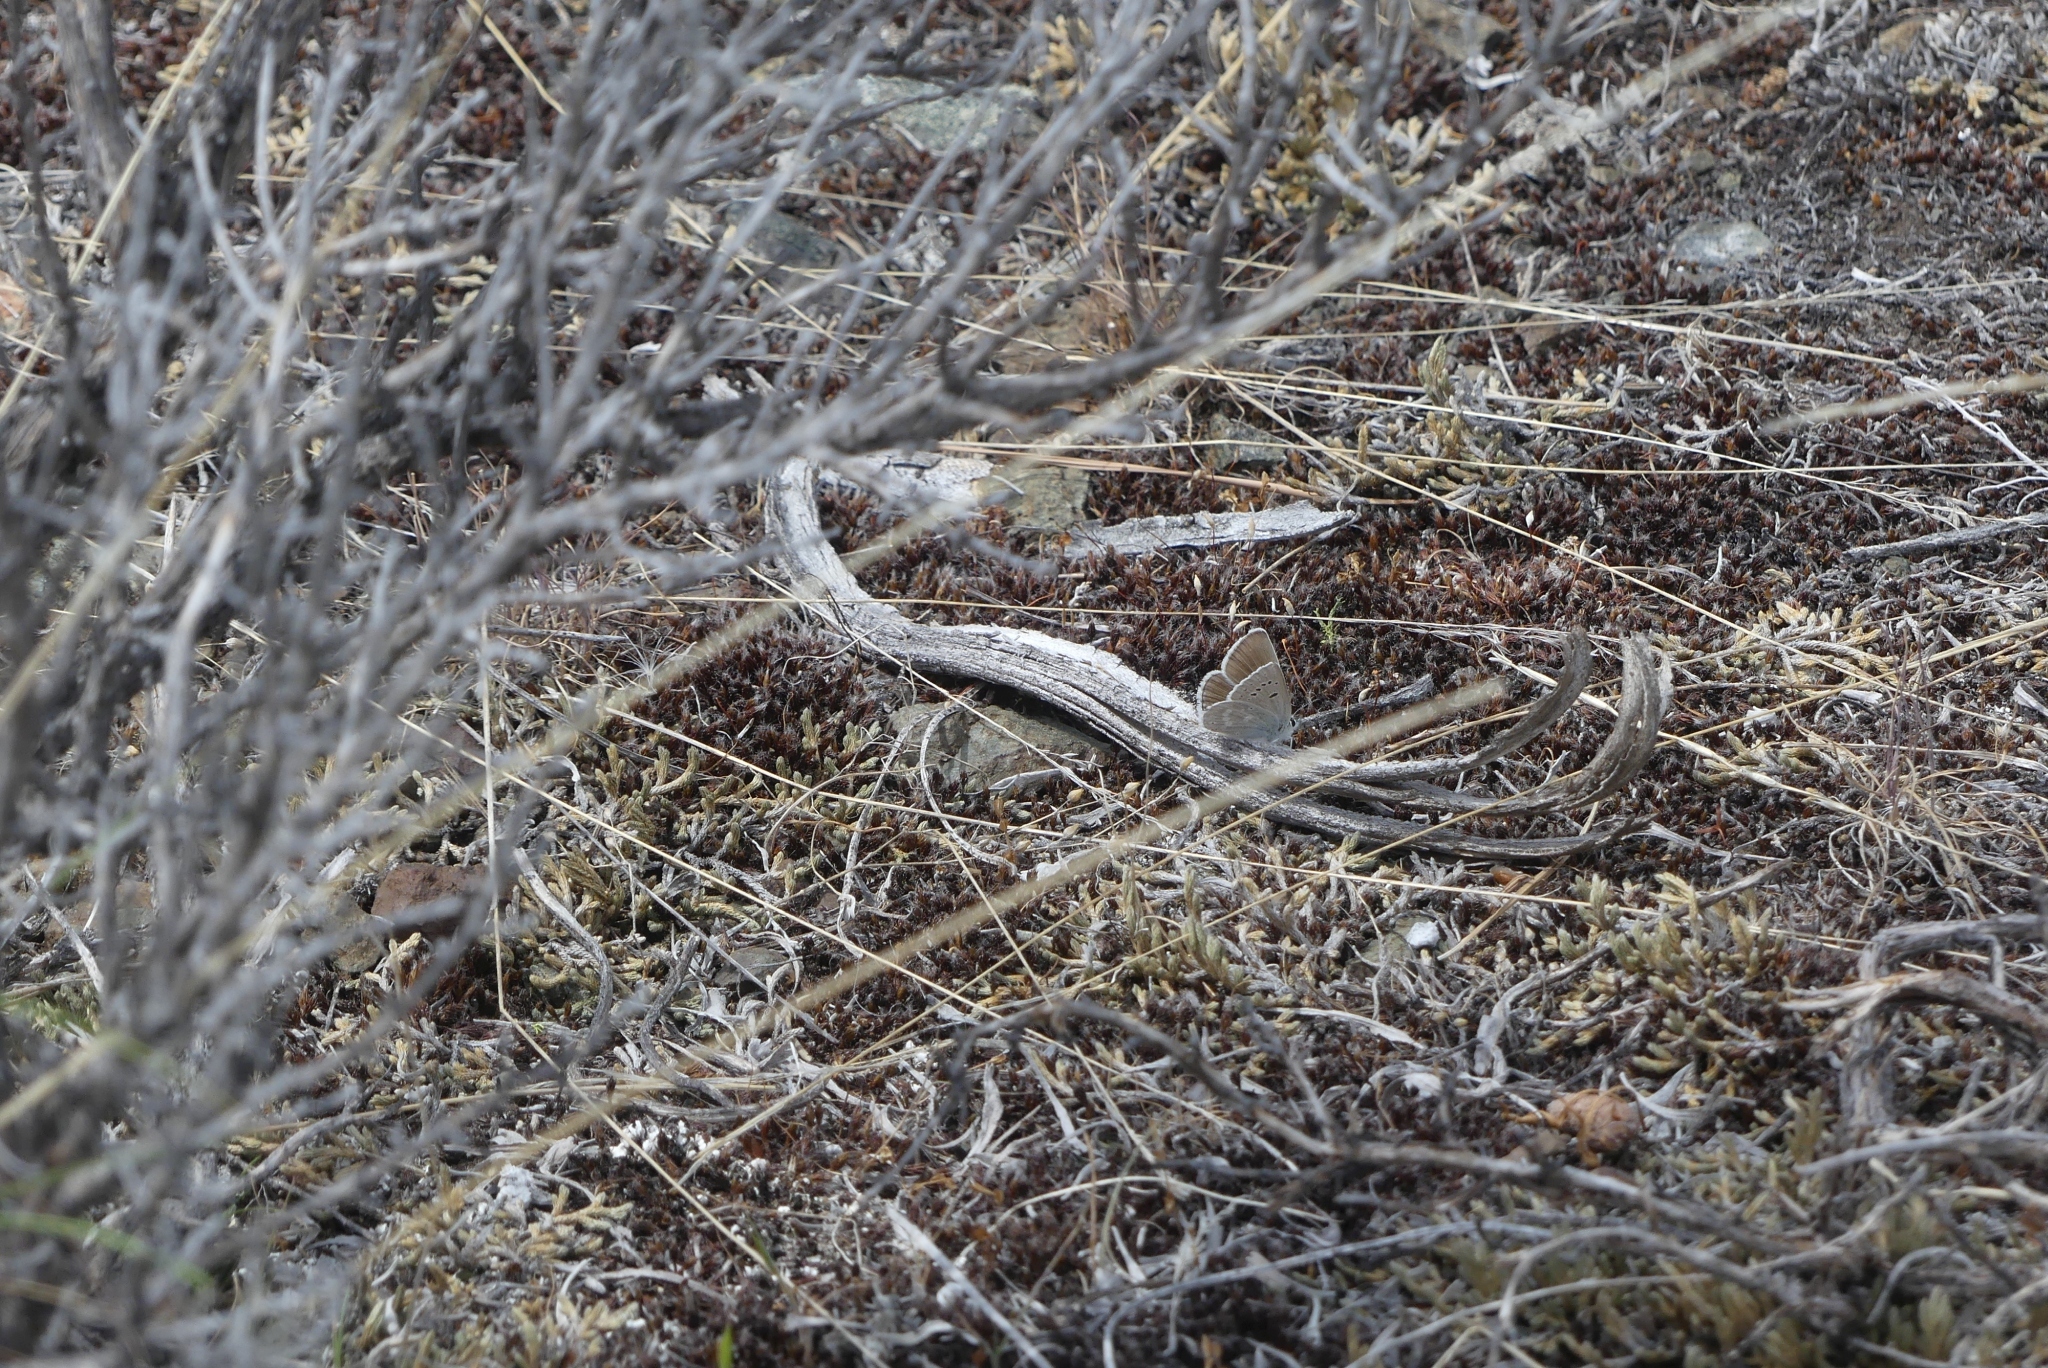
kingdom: Animalia
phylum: Arthropoda
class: Insecta
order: Lepidoptera
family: Lycaenidae
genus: Icaricia
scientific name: Icaricia icarioides
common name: Boisduval's blue
